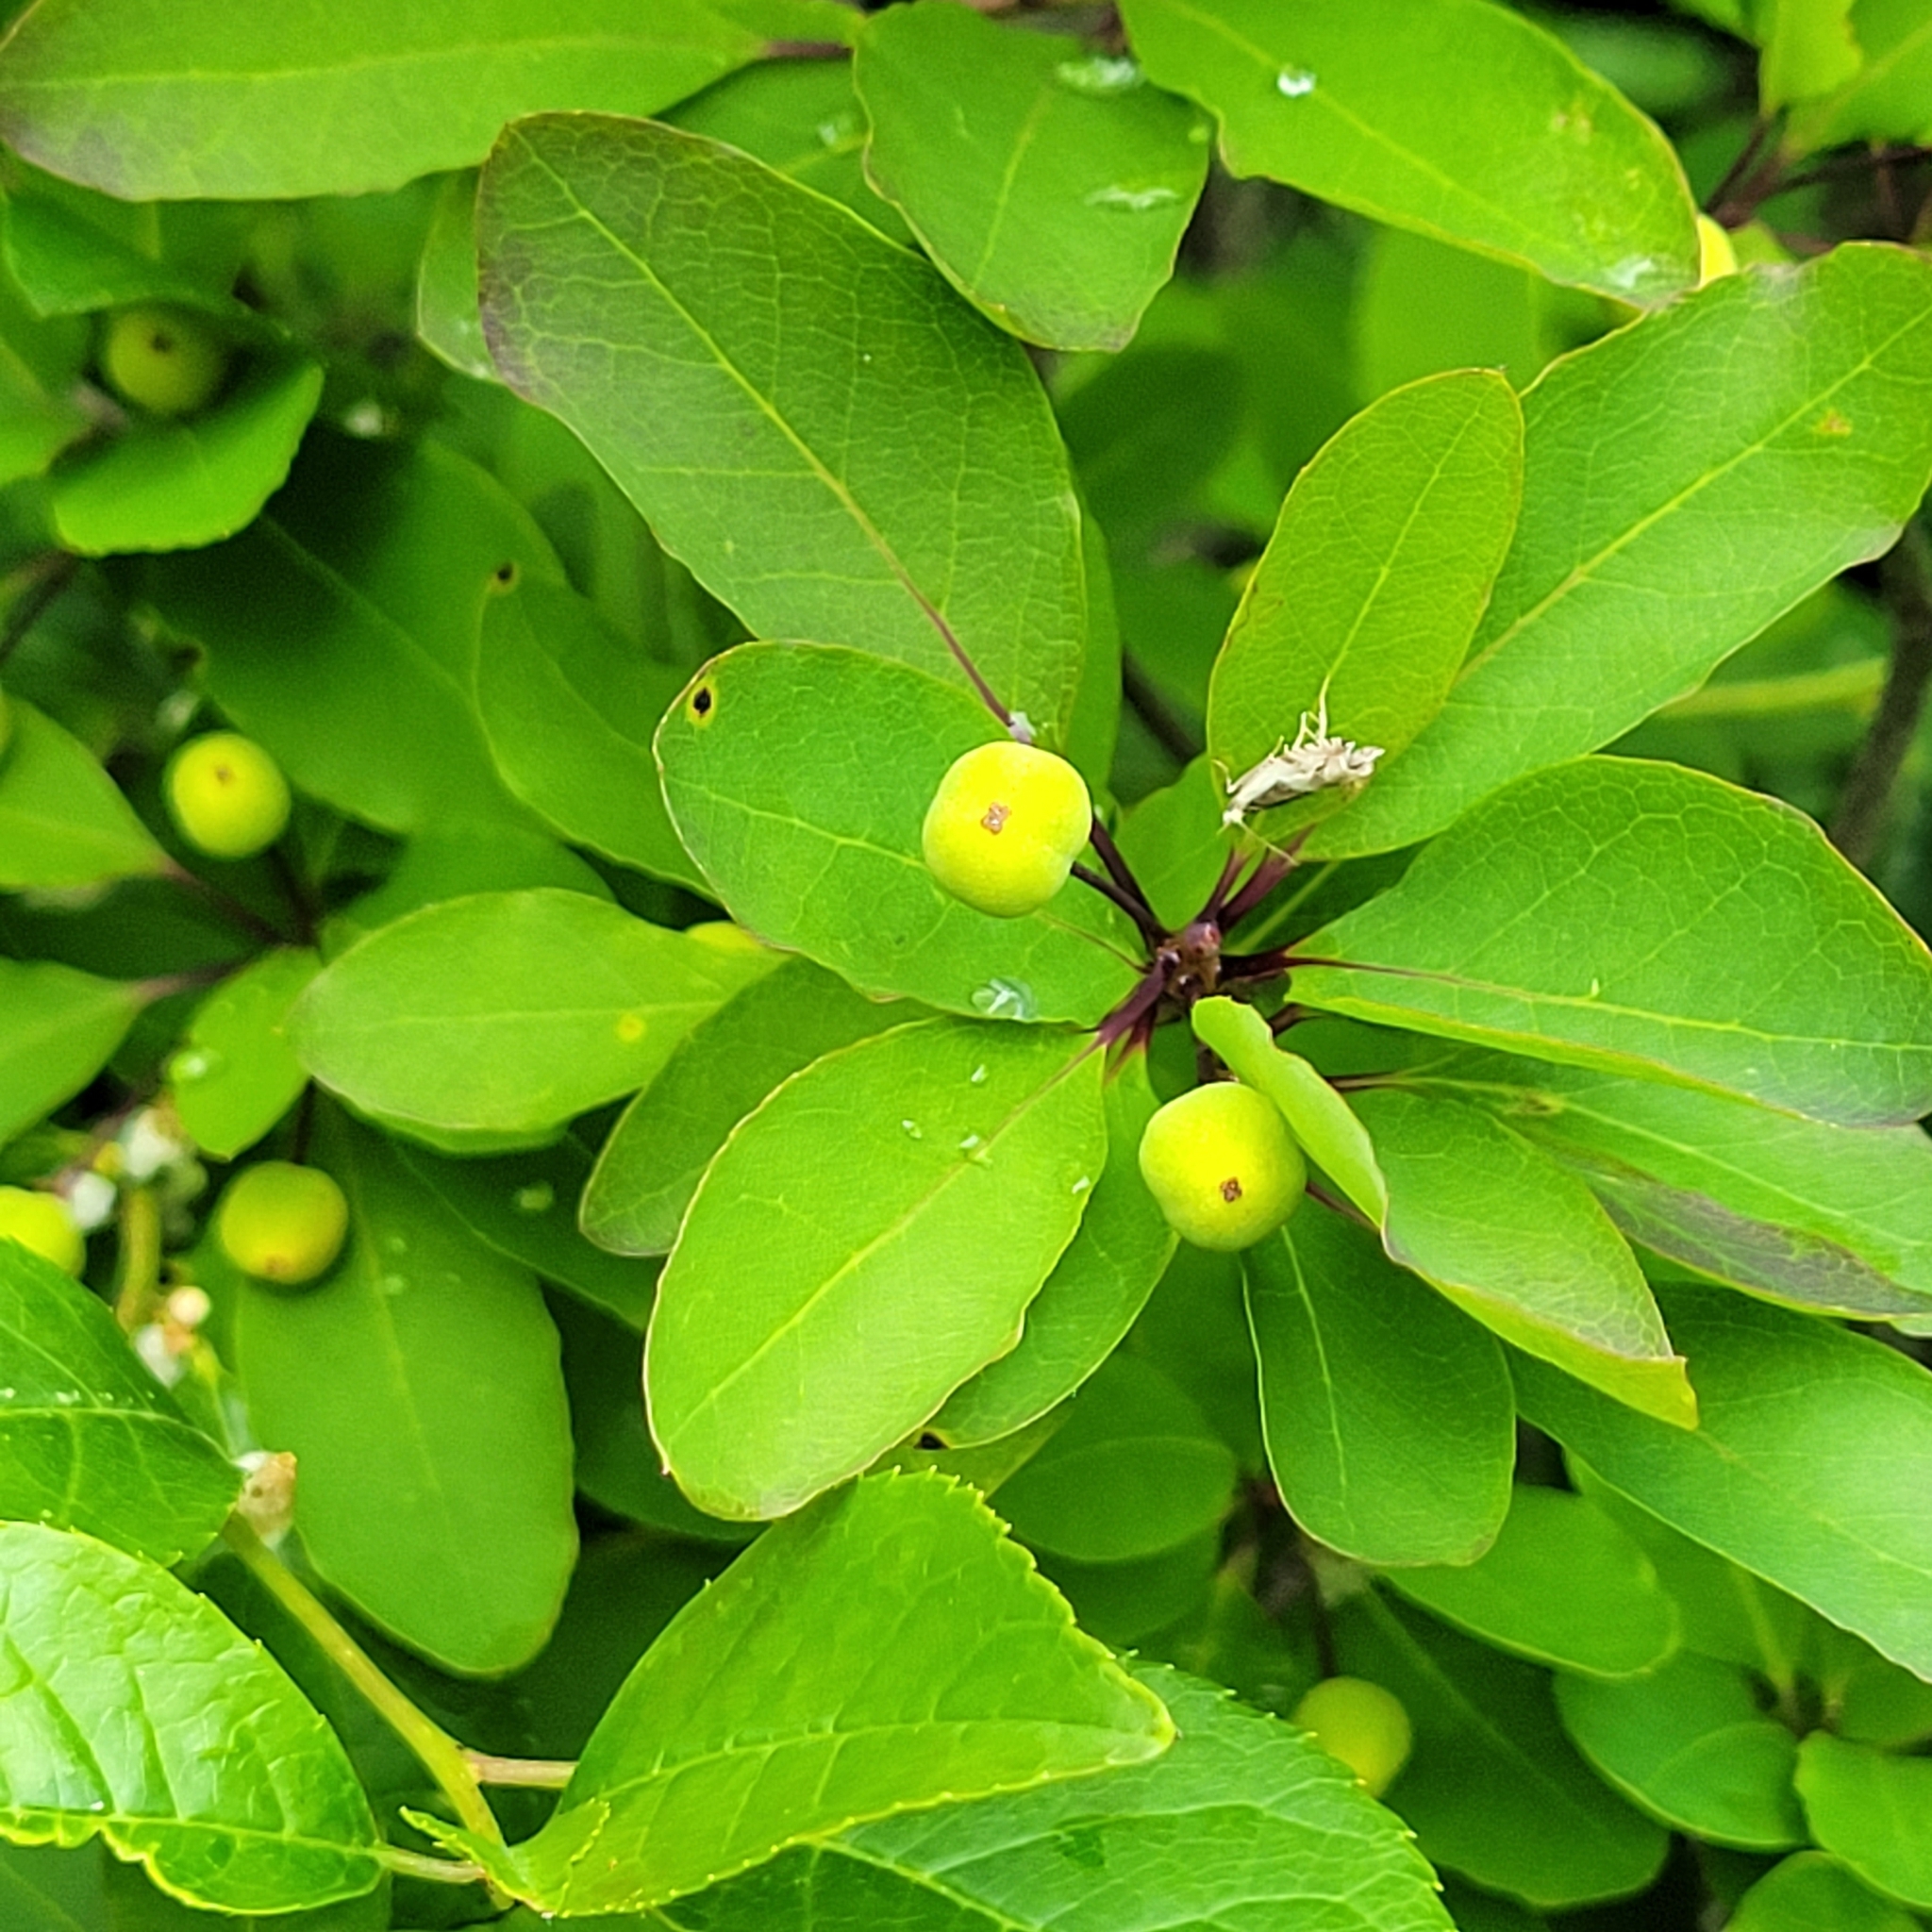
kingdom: Plantae
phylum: Tracheophyta
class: Magnoliopsida
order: Aquifoliales
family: Aquifoliaceae
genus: Ilex
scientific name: Ilex mucronata
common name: Catberry
